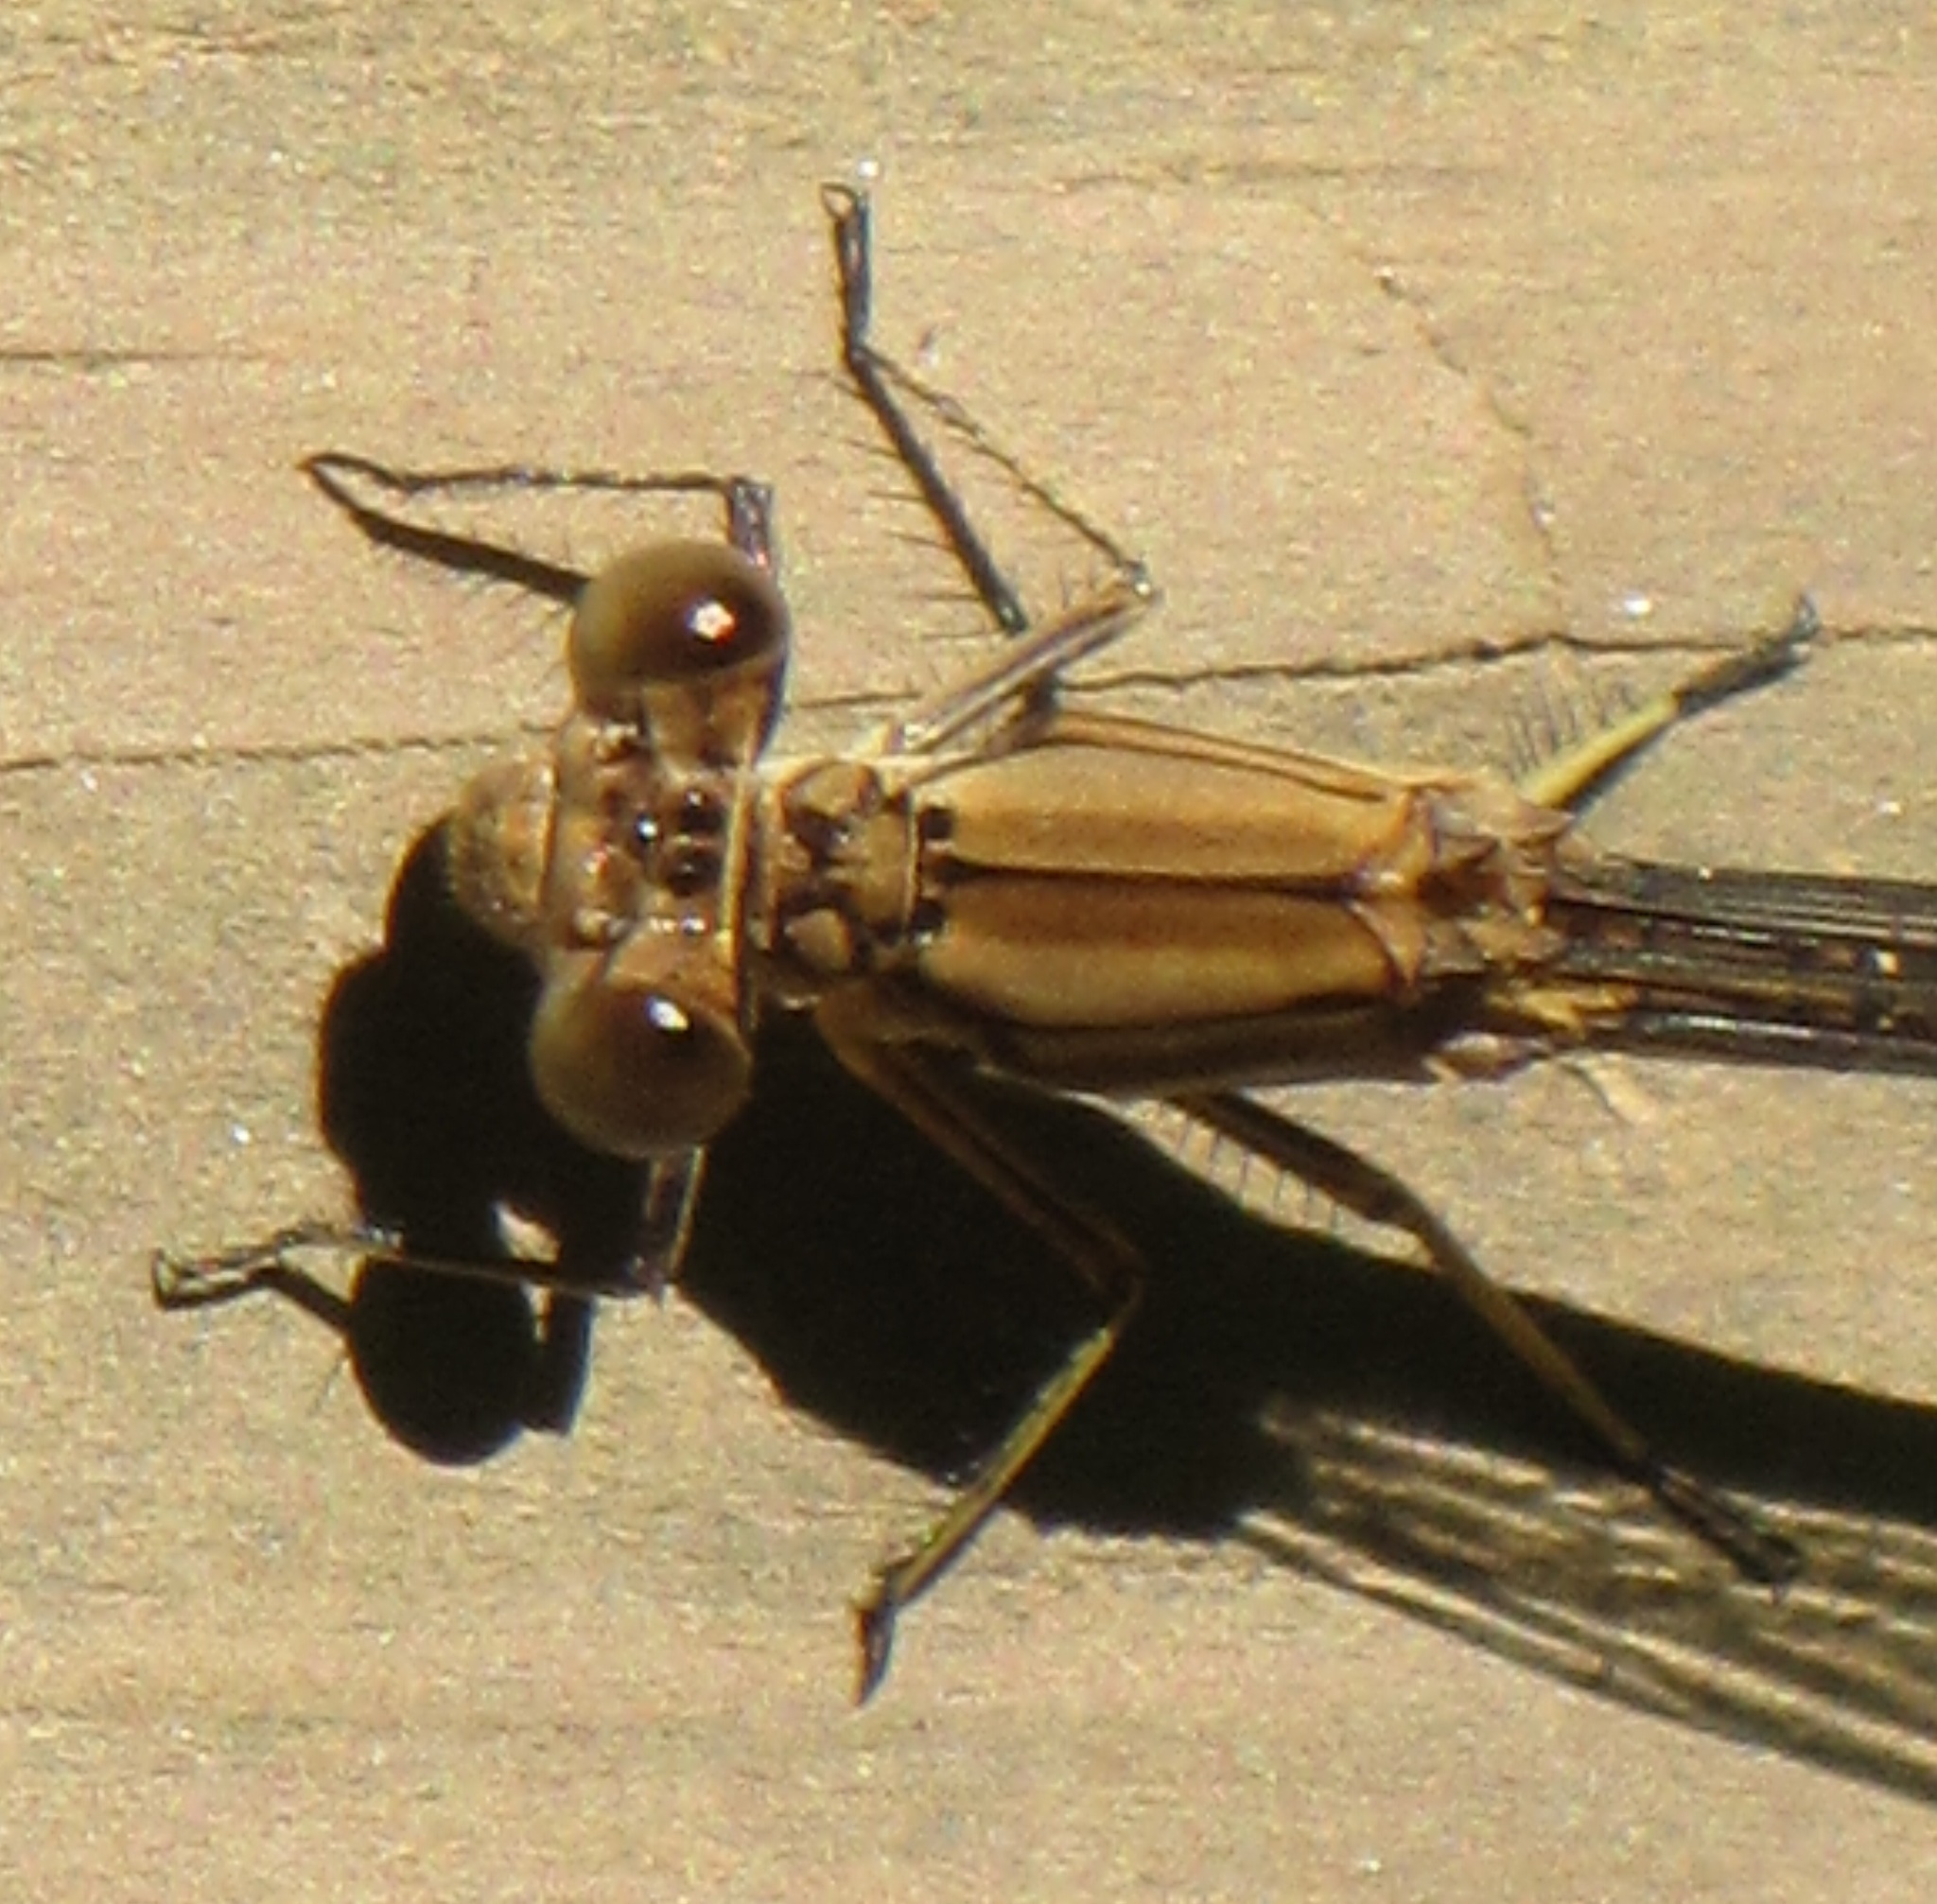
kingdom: Animalia
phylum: Arthropoda
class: Insecta
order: Odonata
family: Coenagrionidae
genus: Argia
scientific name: Argia apicalis
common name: Blue-fronted dancer
